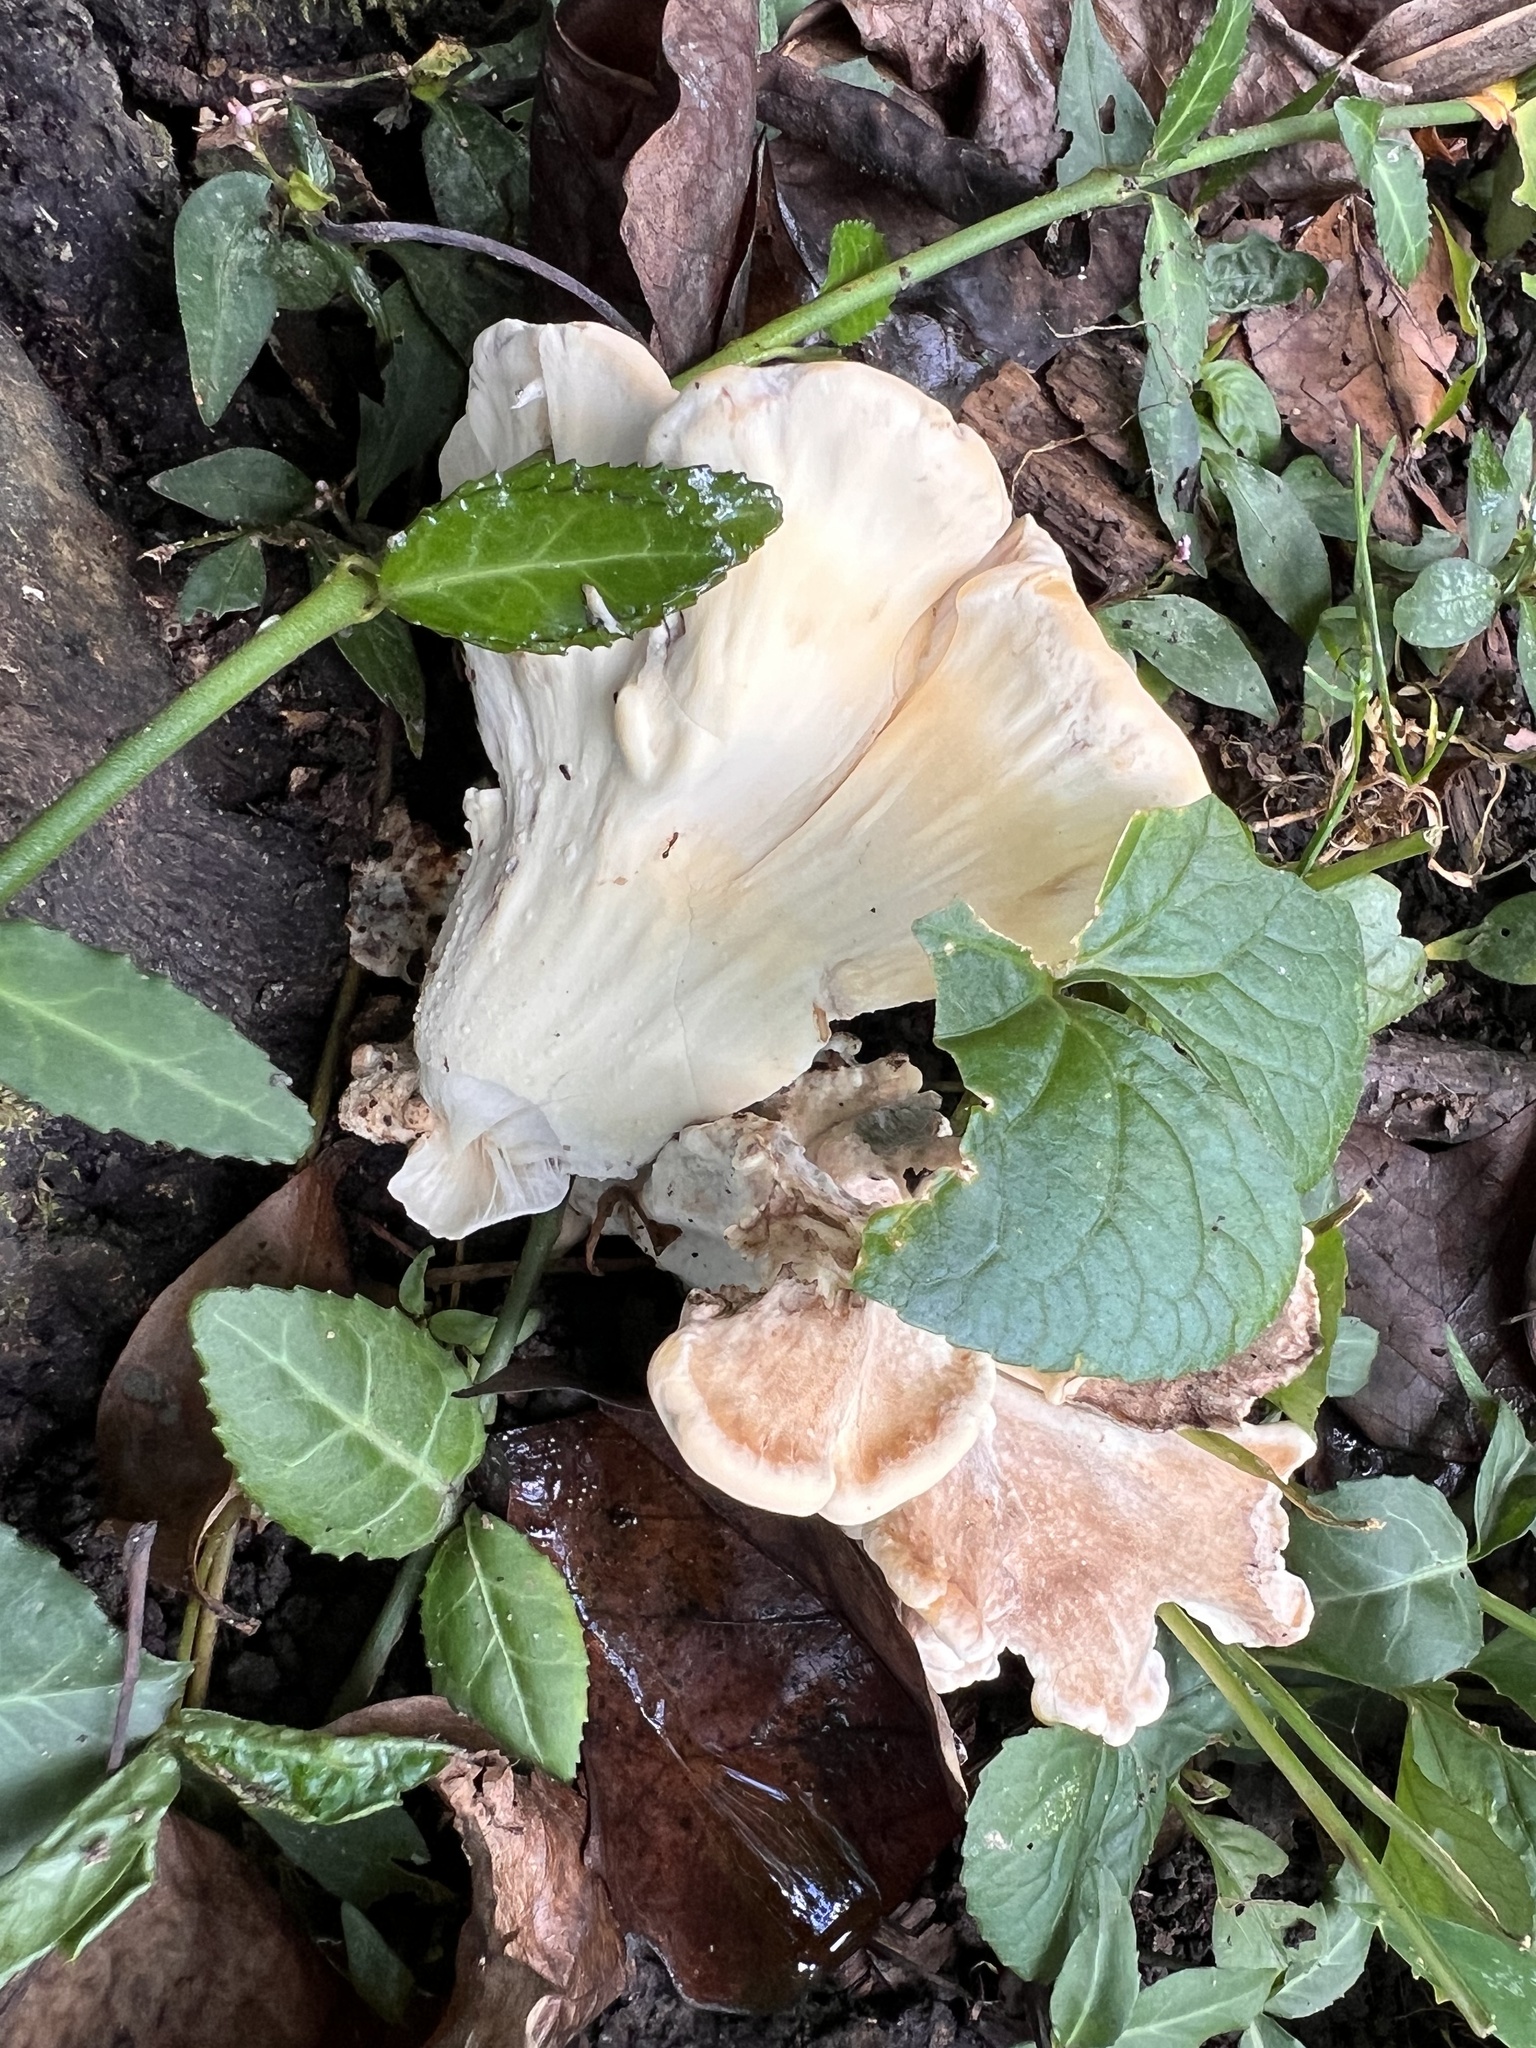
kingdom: Fungi
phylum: Basidiomycota
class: Agaricomycetes
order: Polyporales
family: Meripilaceae
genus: Meripilus
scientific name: Meripilus sumstinei
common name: Black-staining polypore
